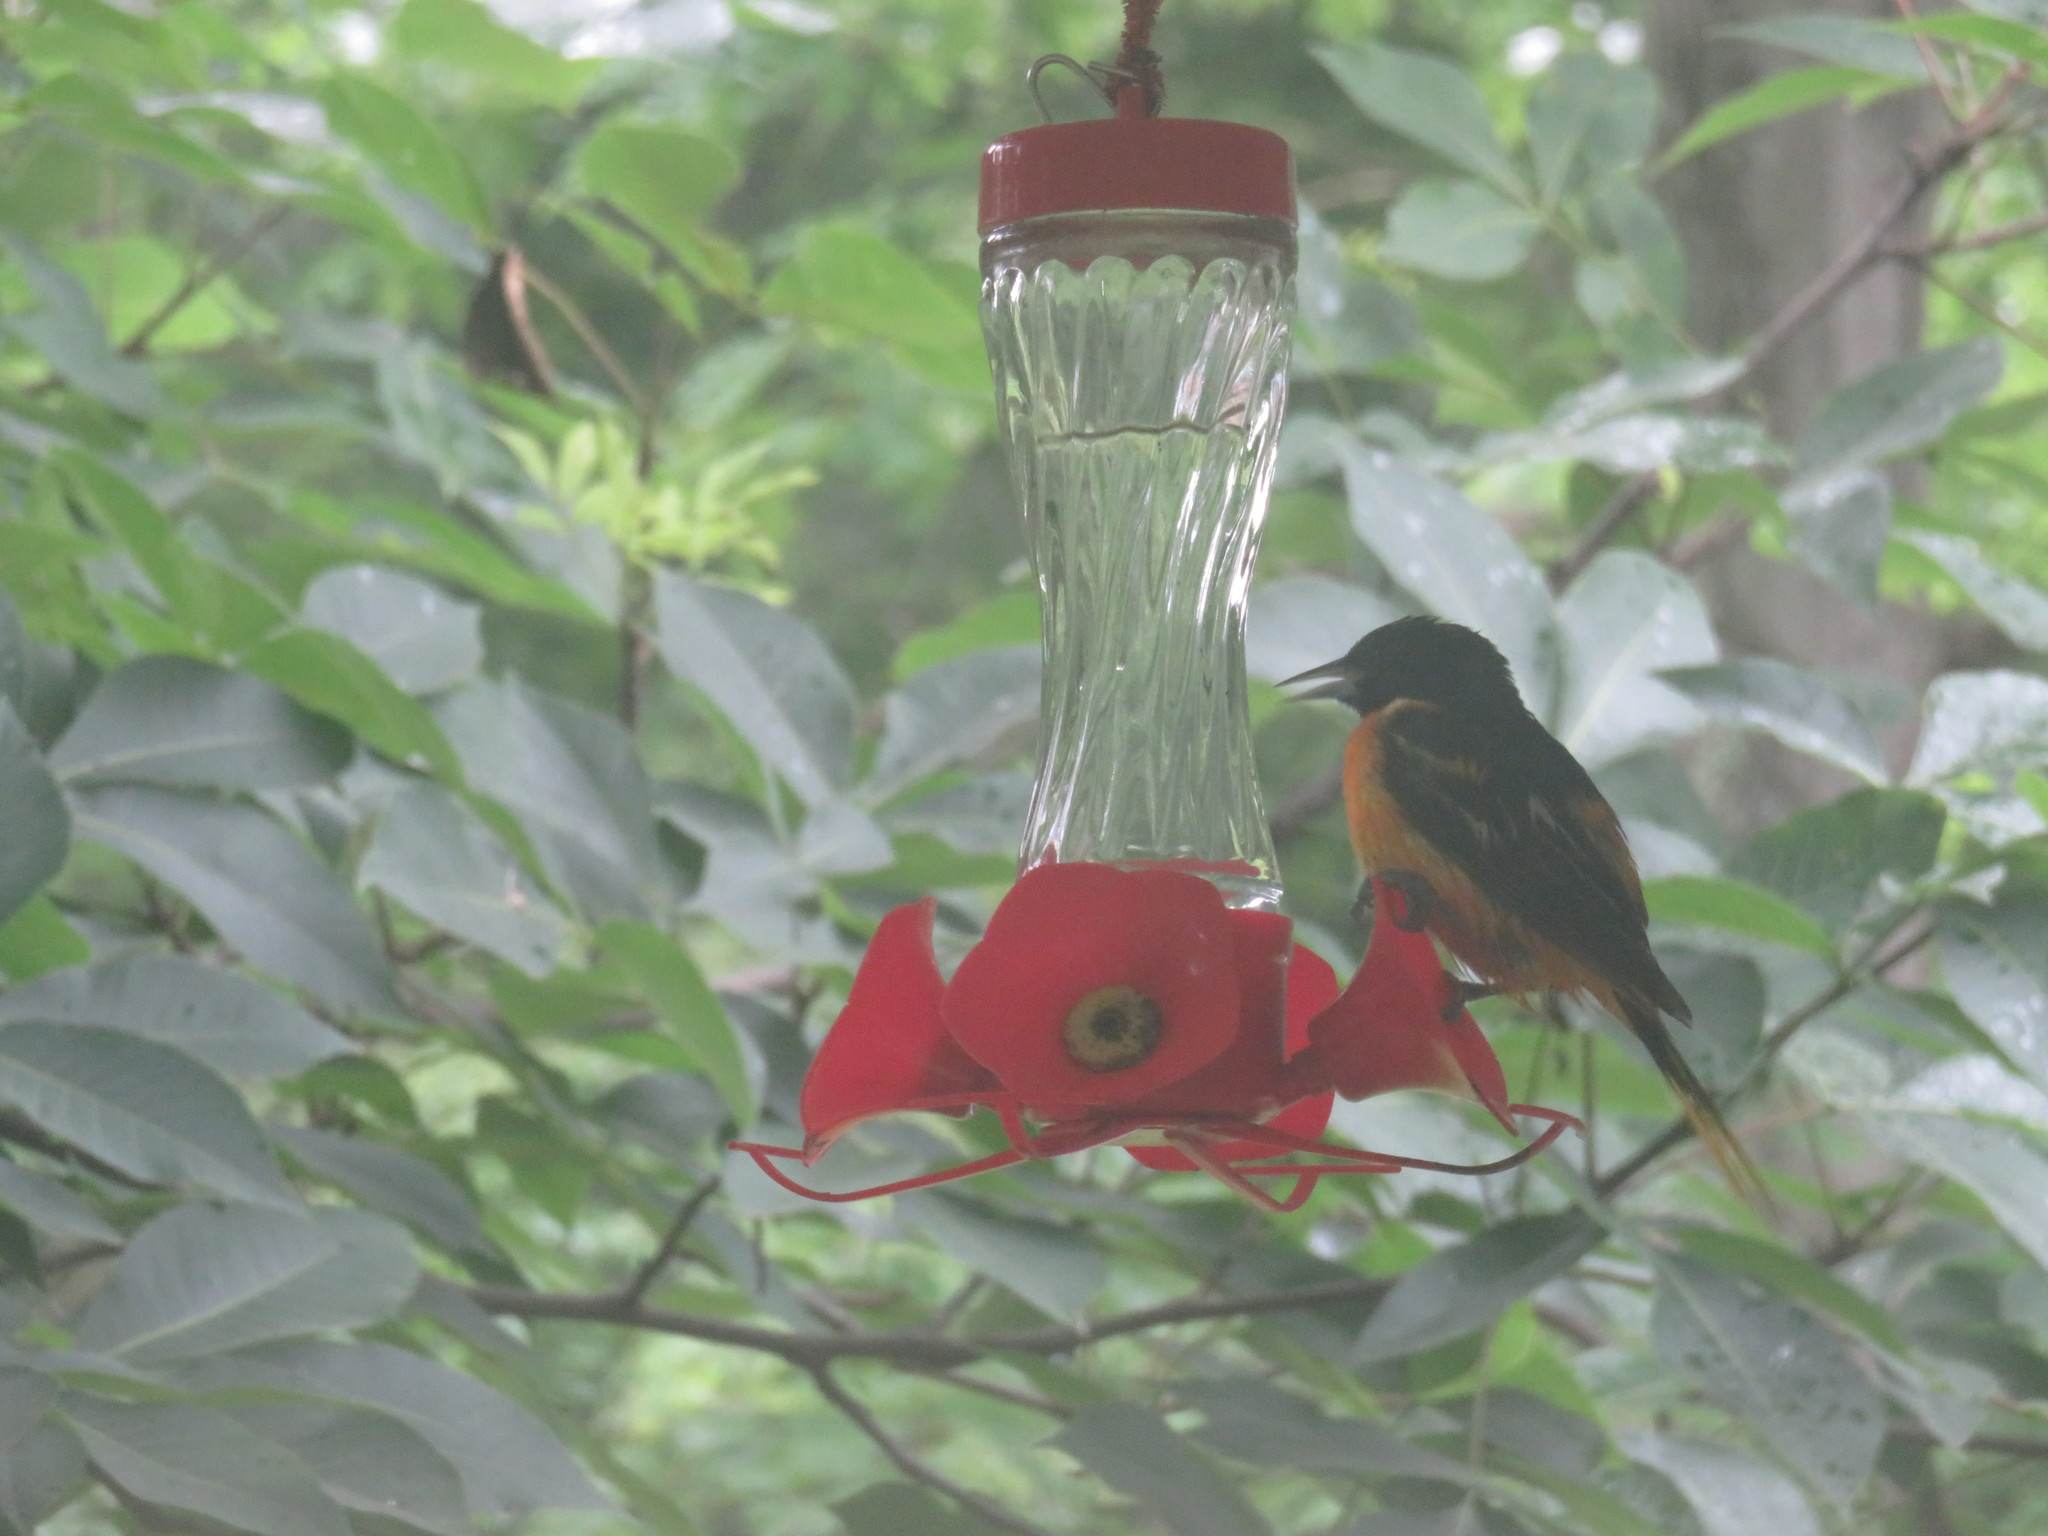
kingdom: Animalia
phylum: Chordata
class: Aves
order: Passeriformes
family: Icteridae
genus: Icterus
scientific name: Icterus galbula
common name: Baltimore oriole
